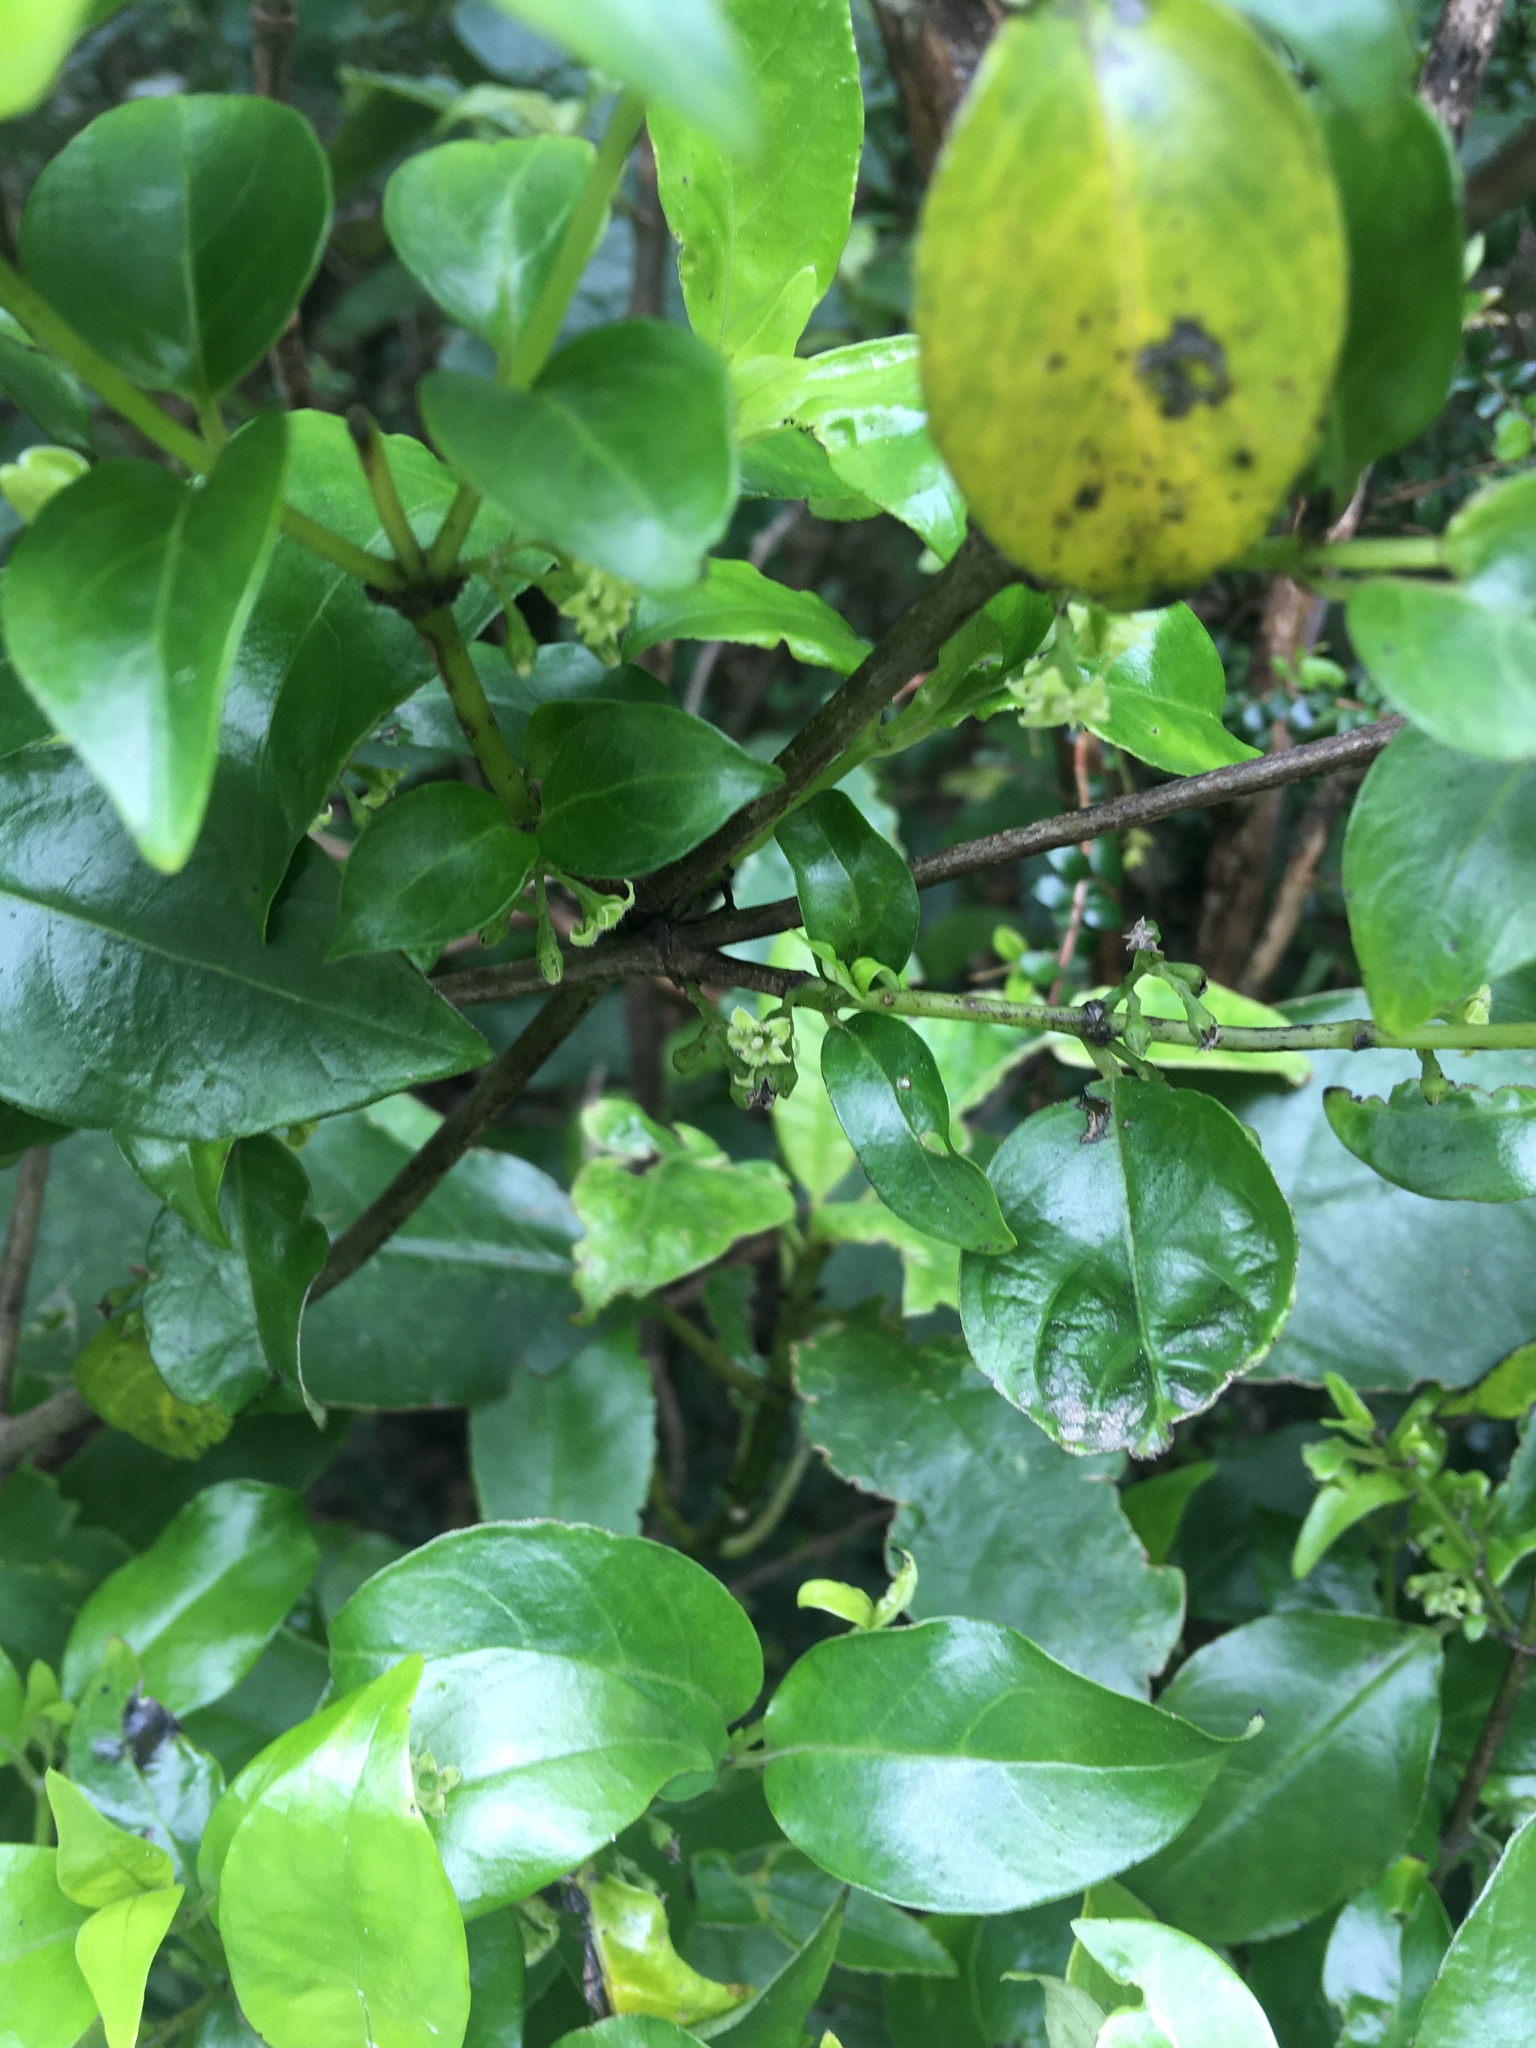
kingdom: Plantae
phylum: Tracheophyta
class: Magnoliopsida
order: Gentianales
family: Loganiaceae
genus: Geniostoma
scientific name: Geniostoma ligustrifolium
